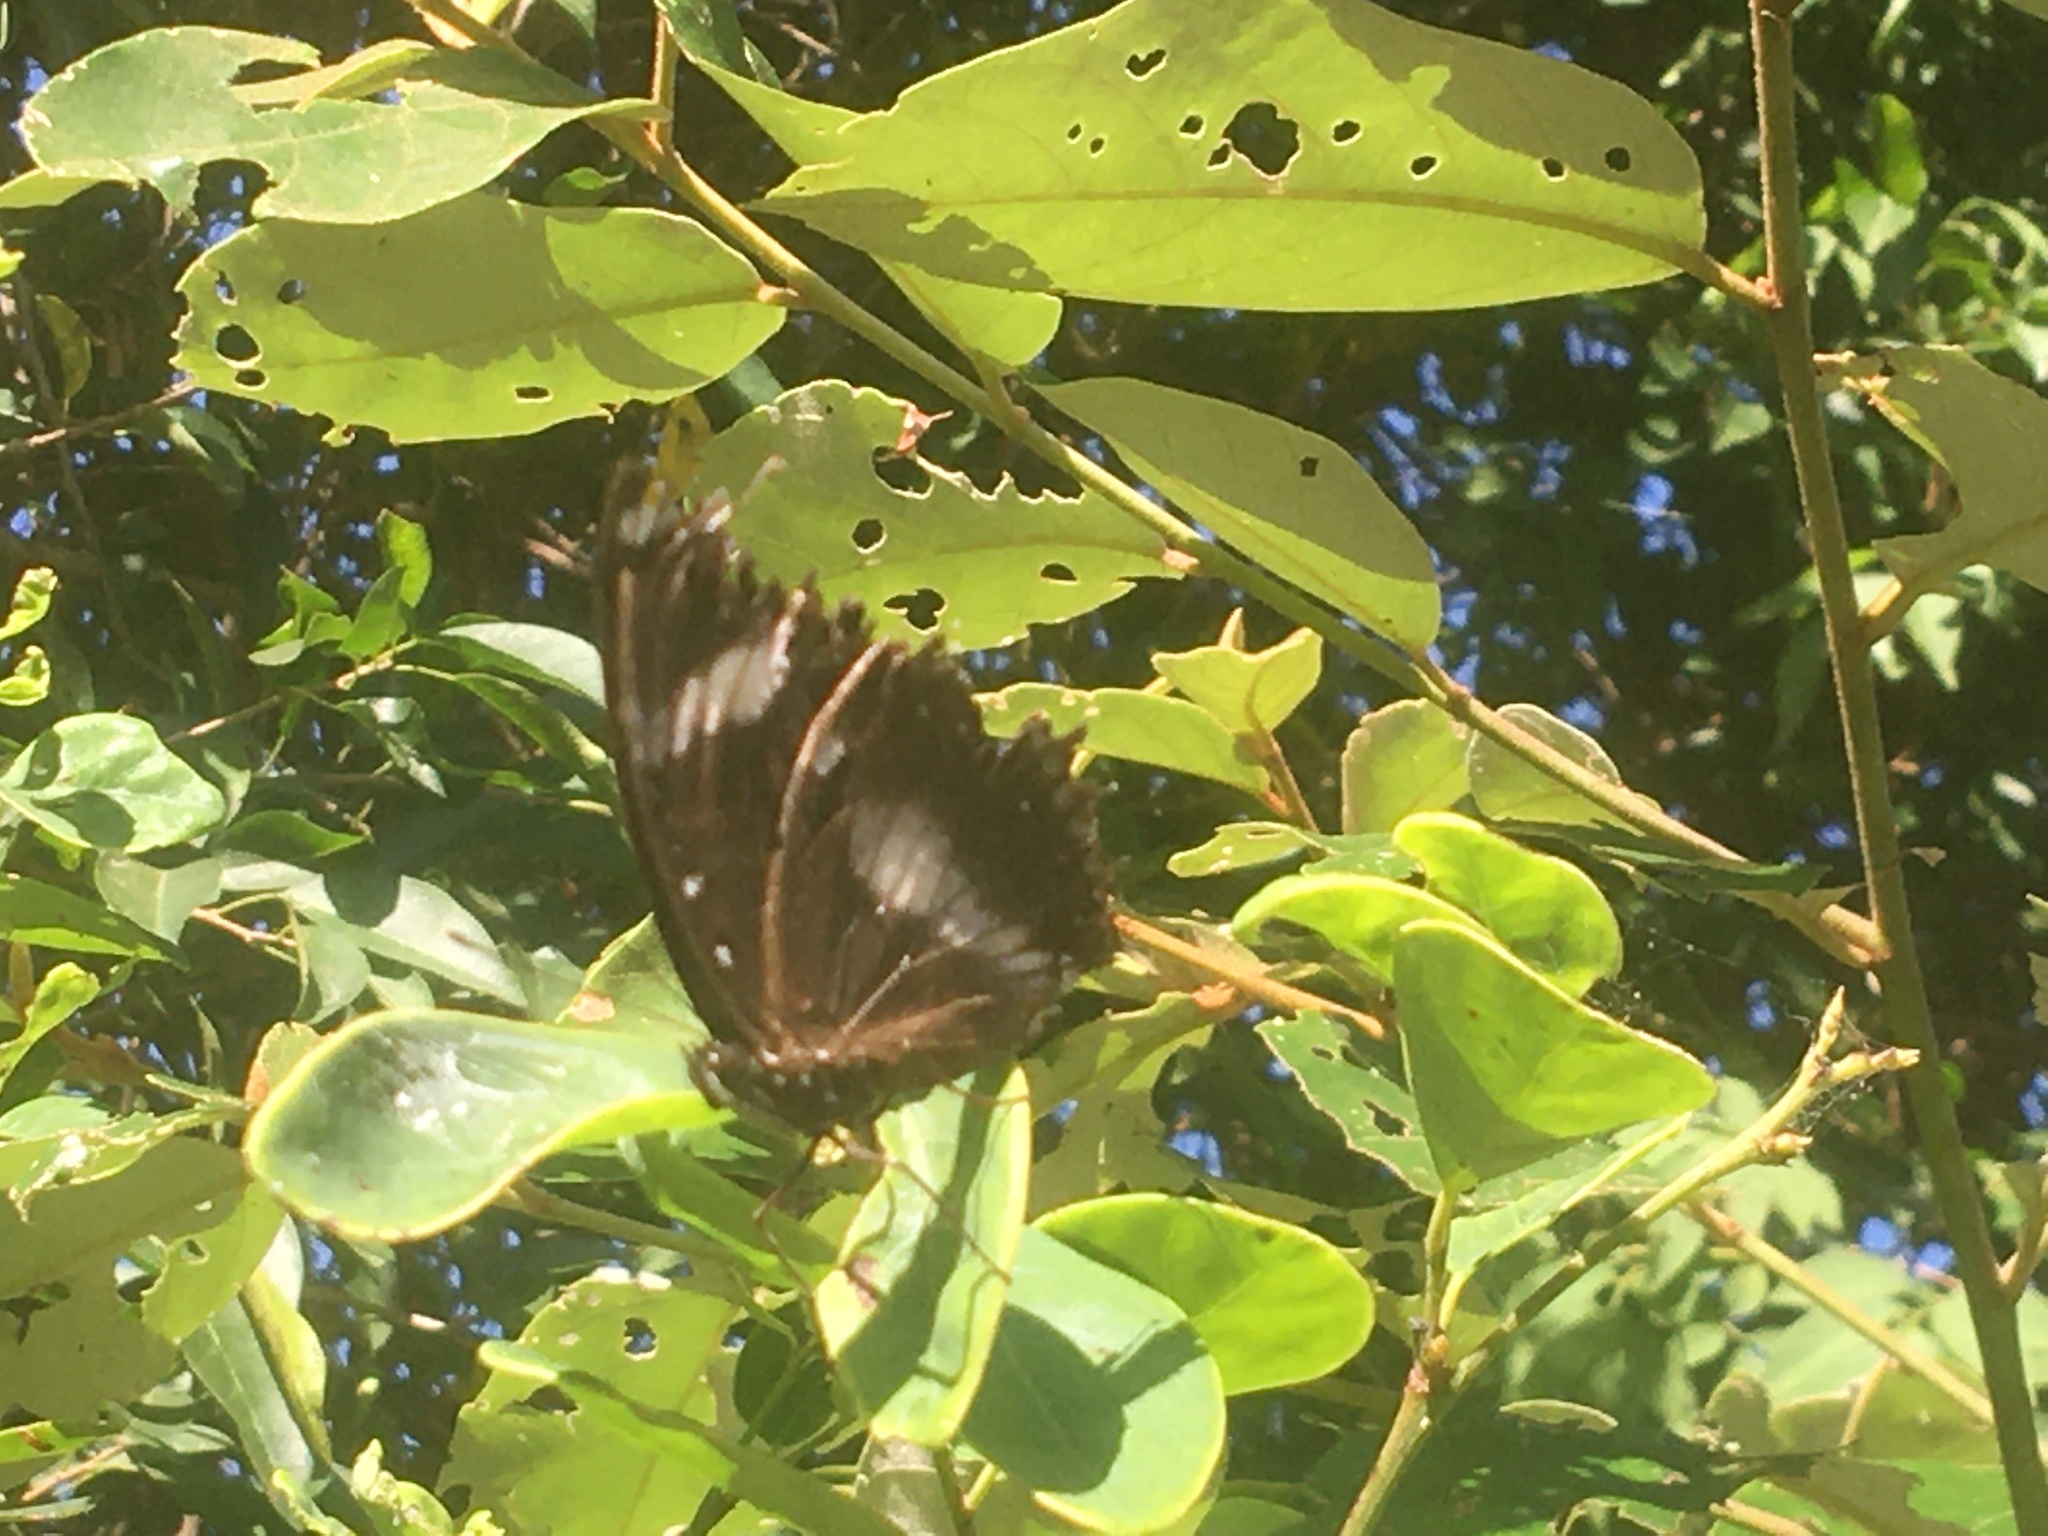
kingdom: Animalia
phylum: Arthropoda
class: Insecta
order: Lepidoptera
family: Nymphalidae
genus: Hypolimnas
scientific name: Hypolimnas bolina
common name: Great eggfly
